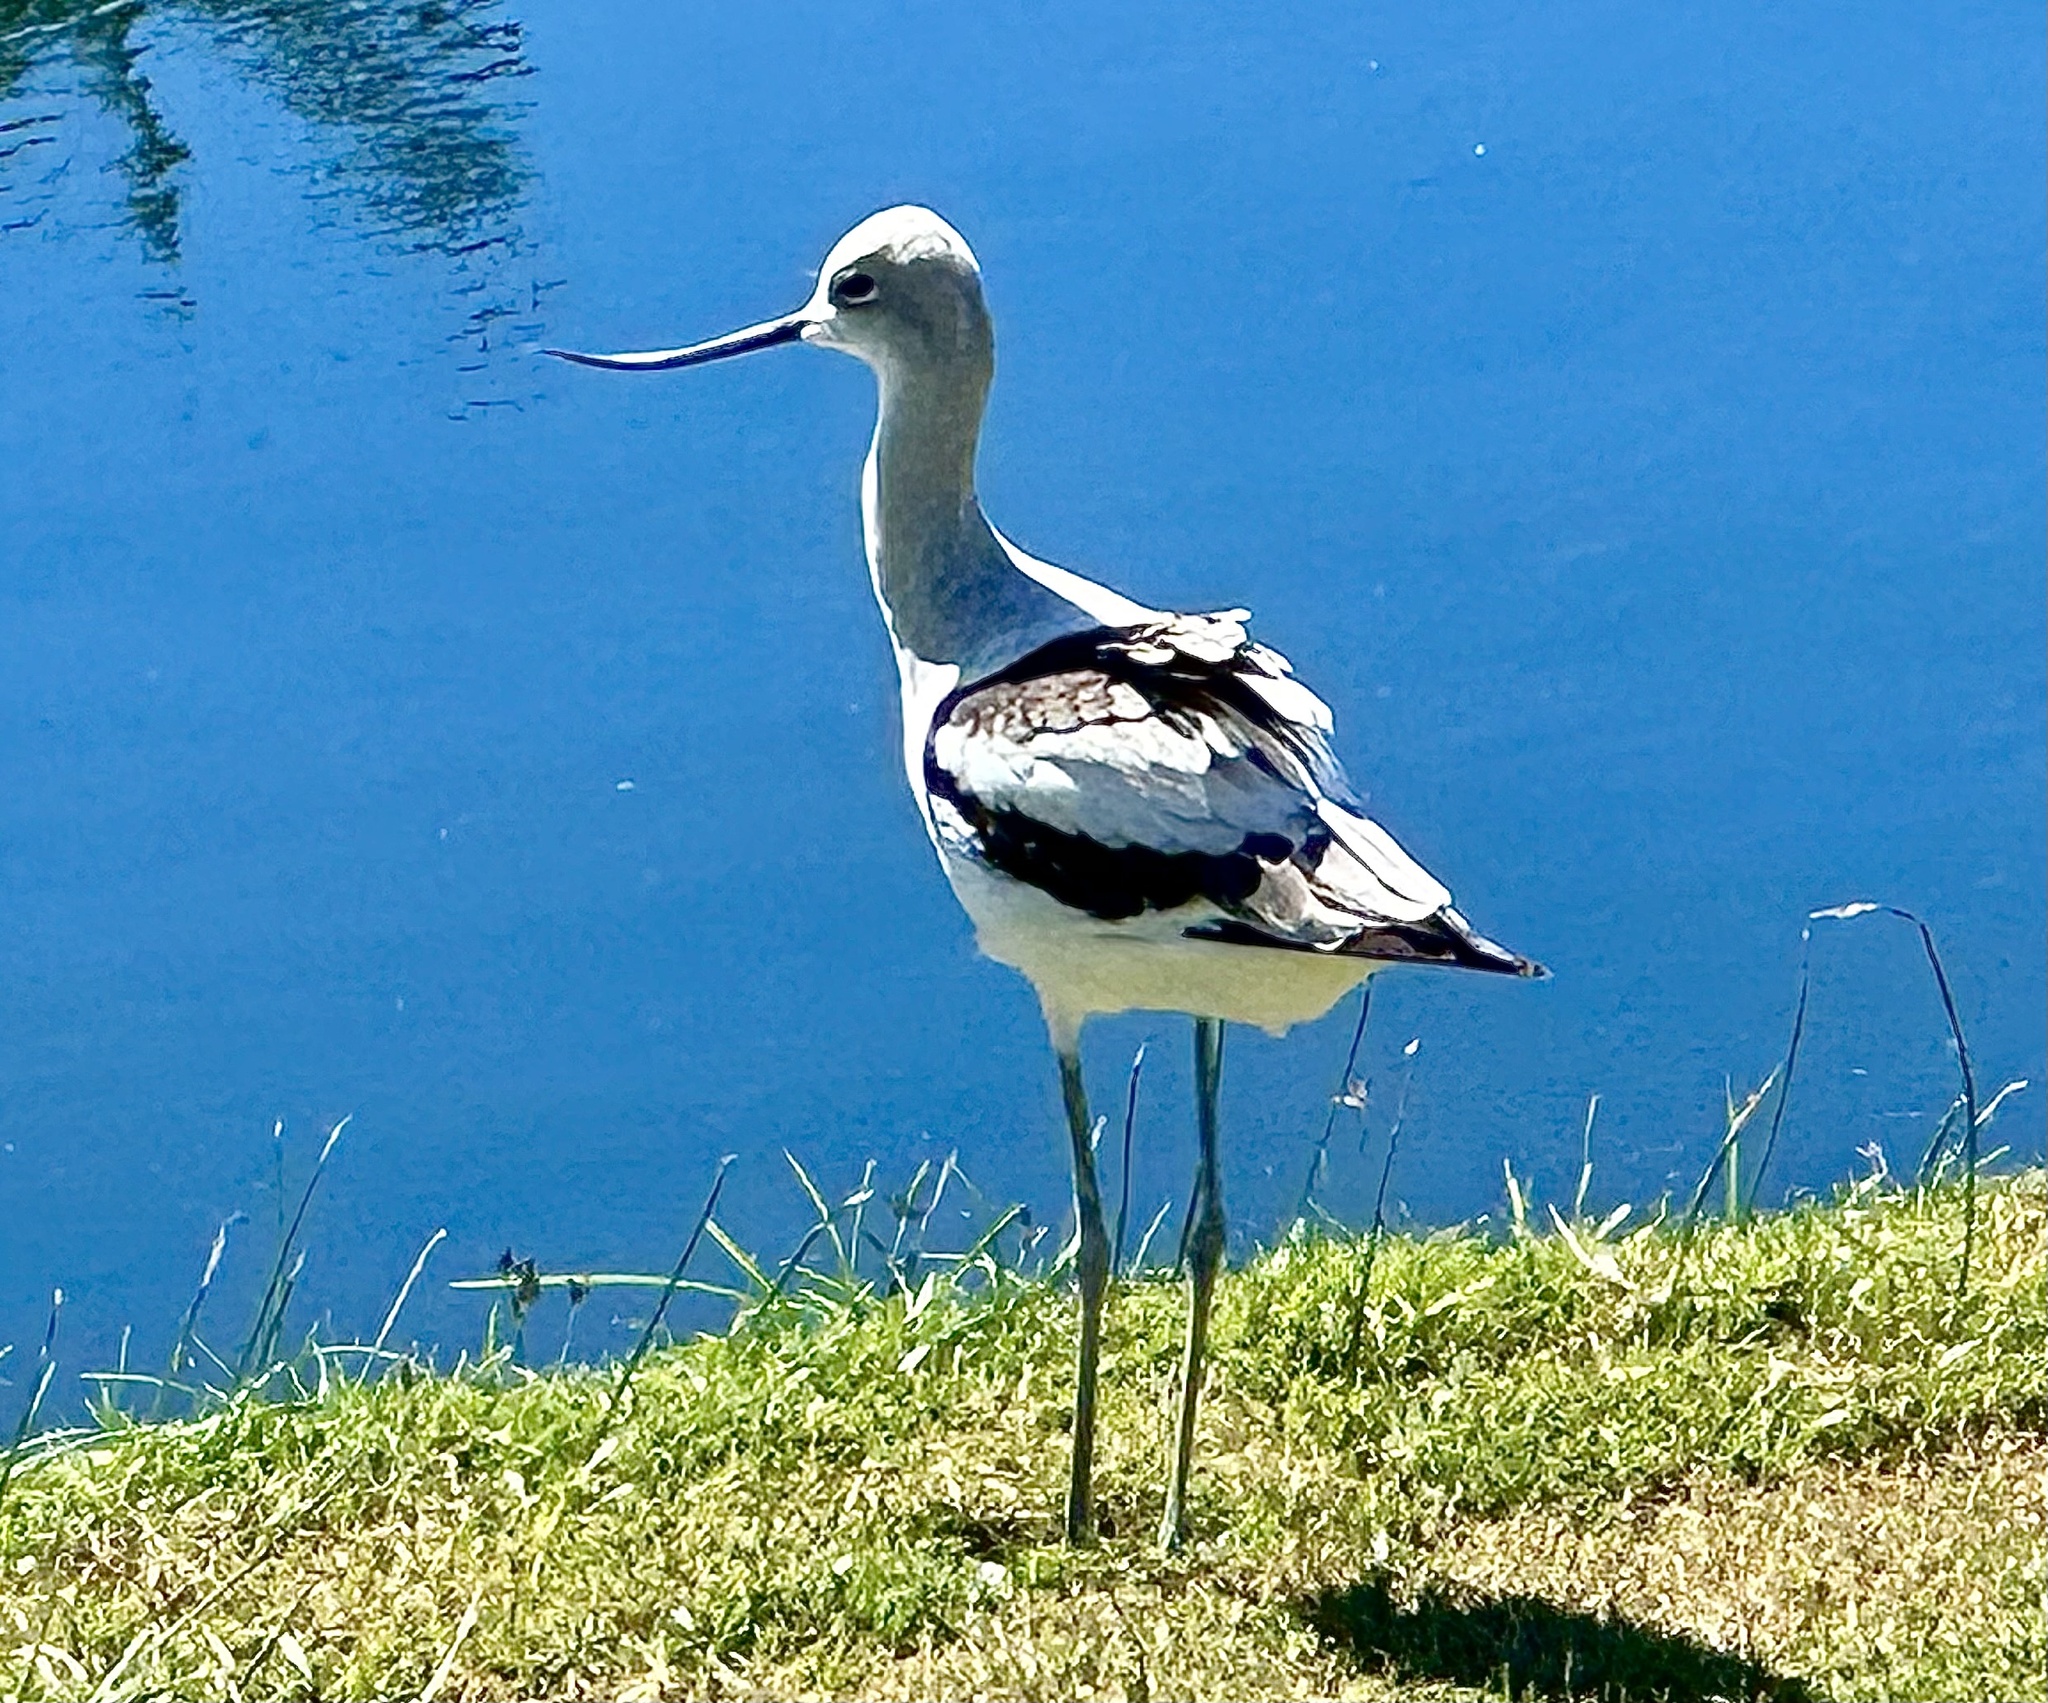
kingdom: Animalia
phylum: Chordata
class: Aves
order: Charadriiformes
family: Recurvirostridae
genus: Recurvirostra
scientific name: Recurvirostra americana
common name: American avocet
